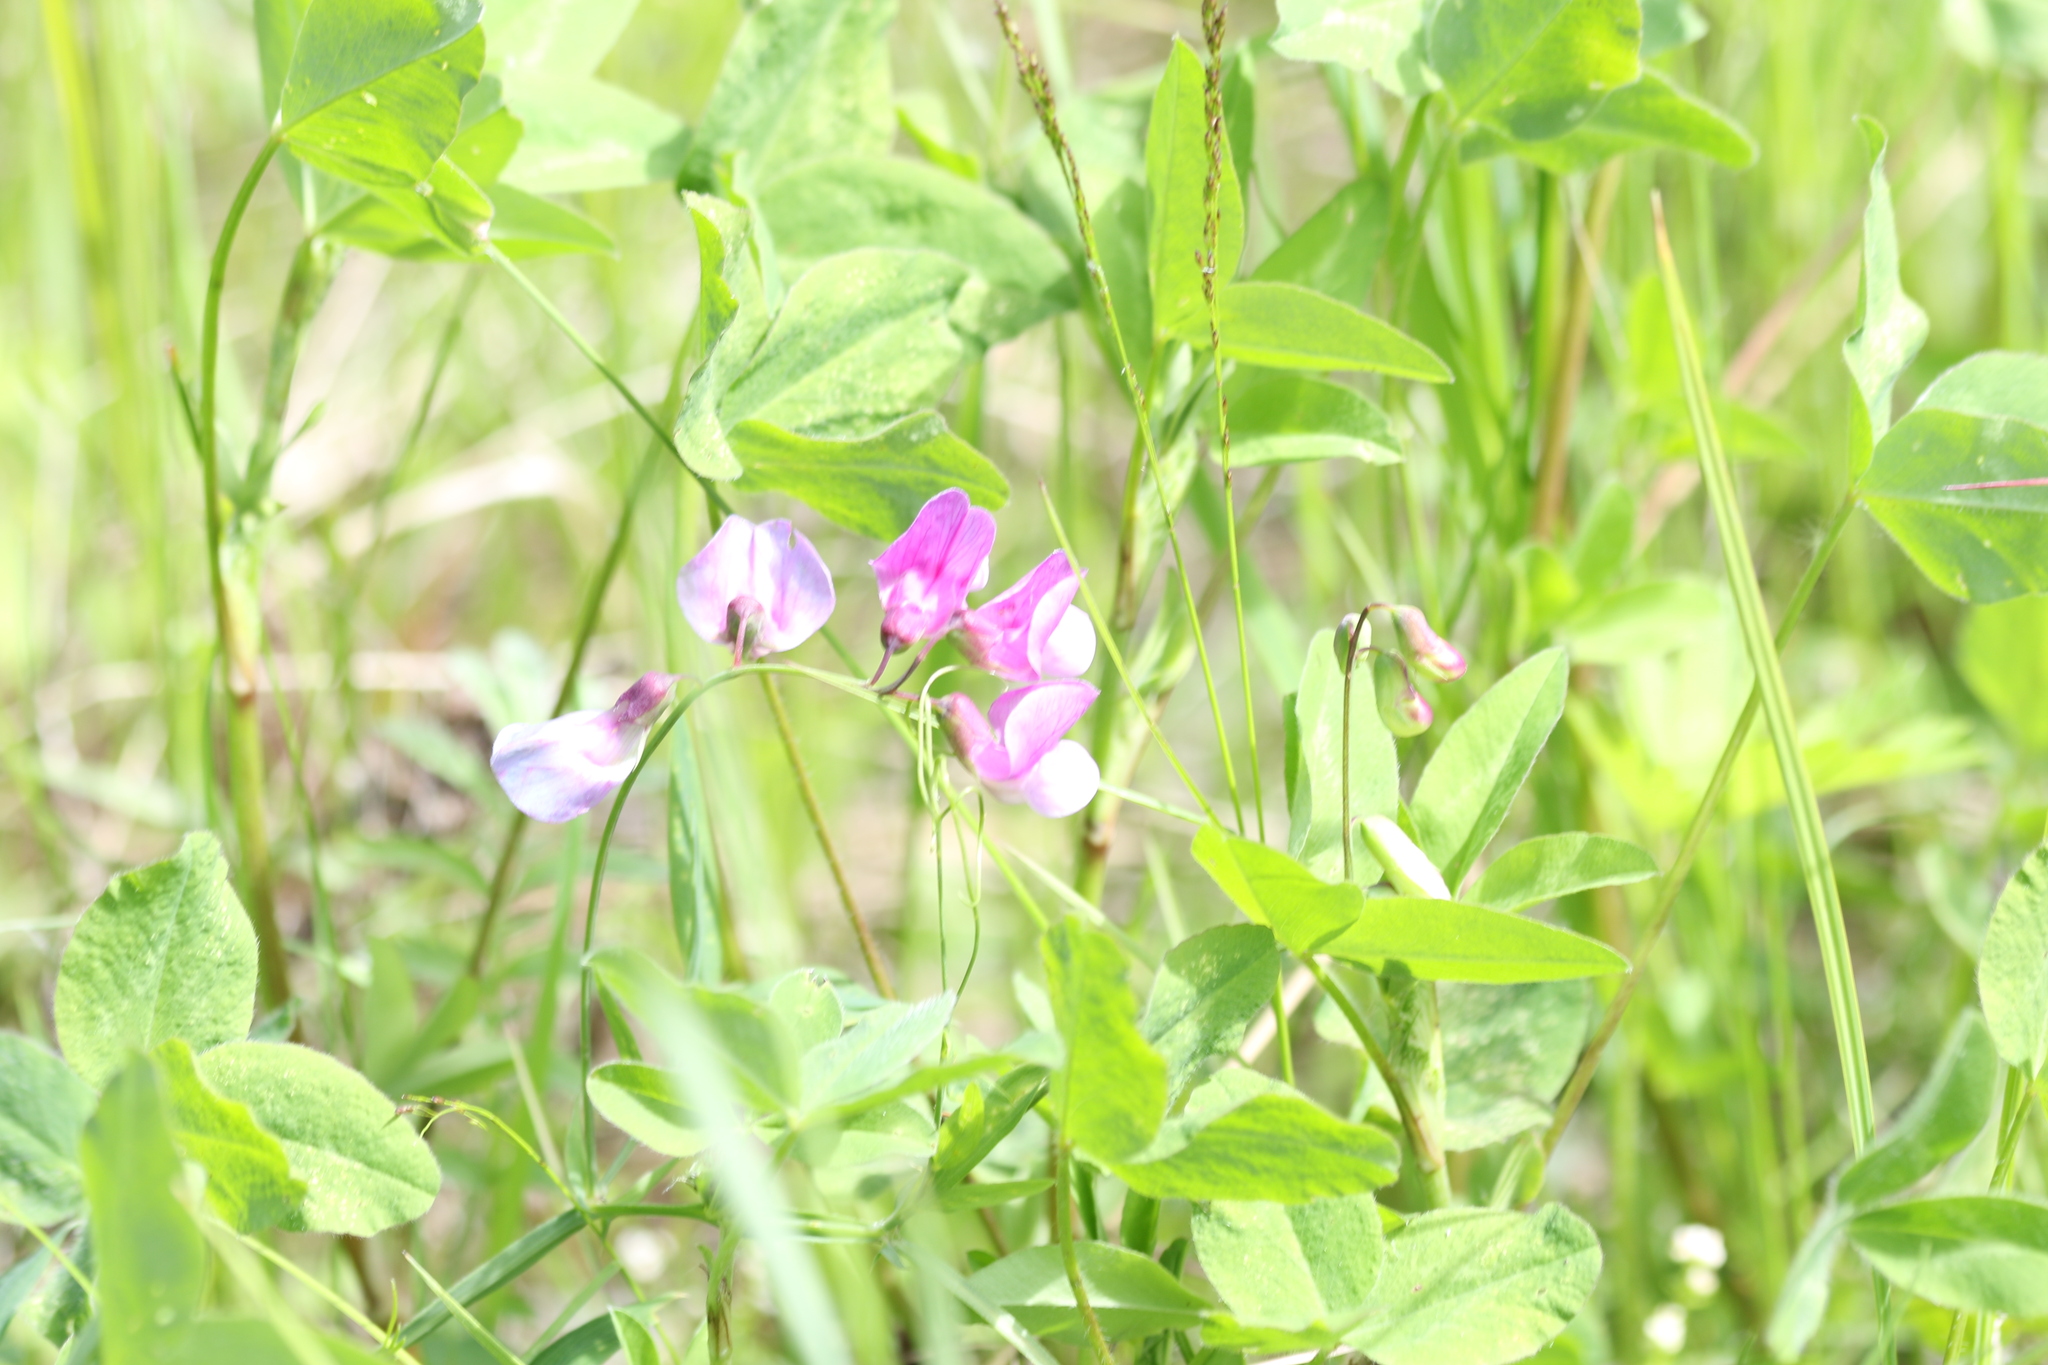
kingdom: Plantae
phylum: Tracheophyta
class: Magnoliopsida
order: Fabales
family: Fabaceae
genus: Lathyrus
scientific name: Lathyrus palustris
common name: Marsh pea
